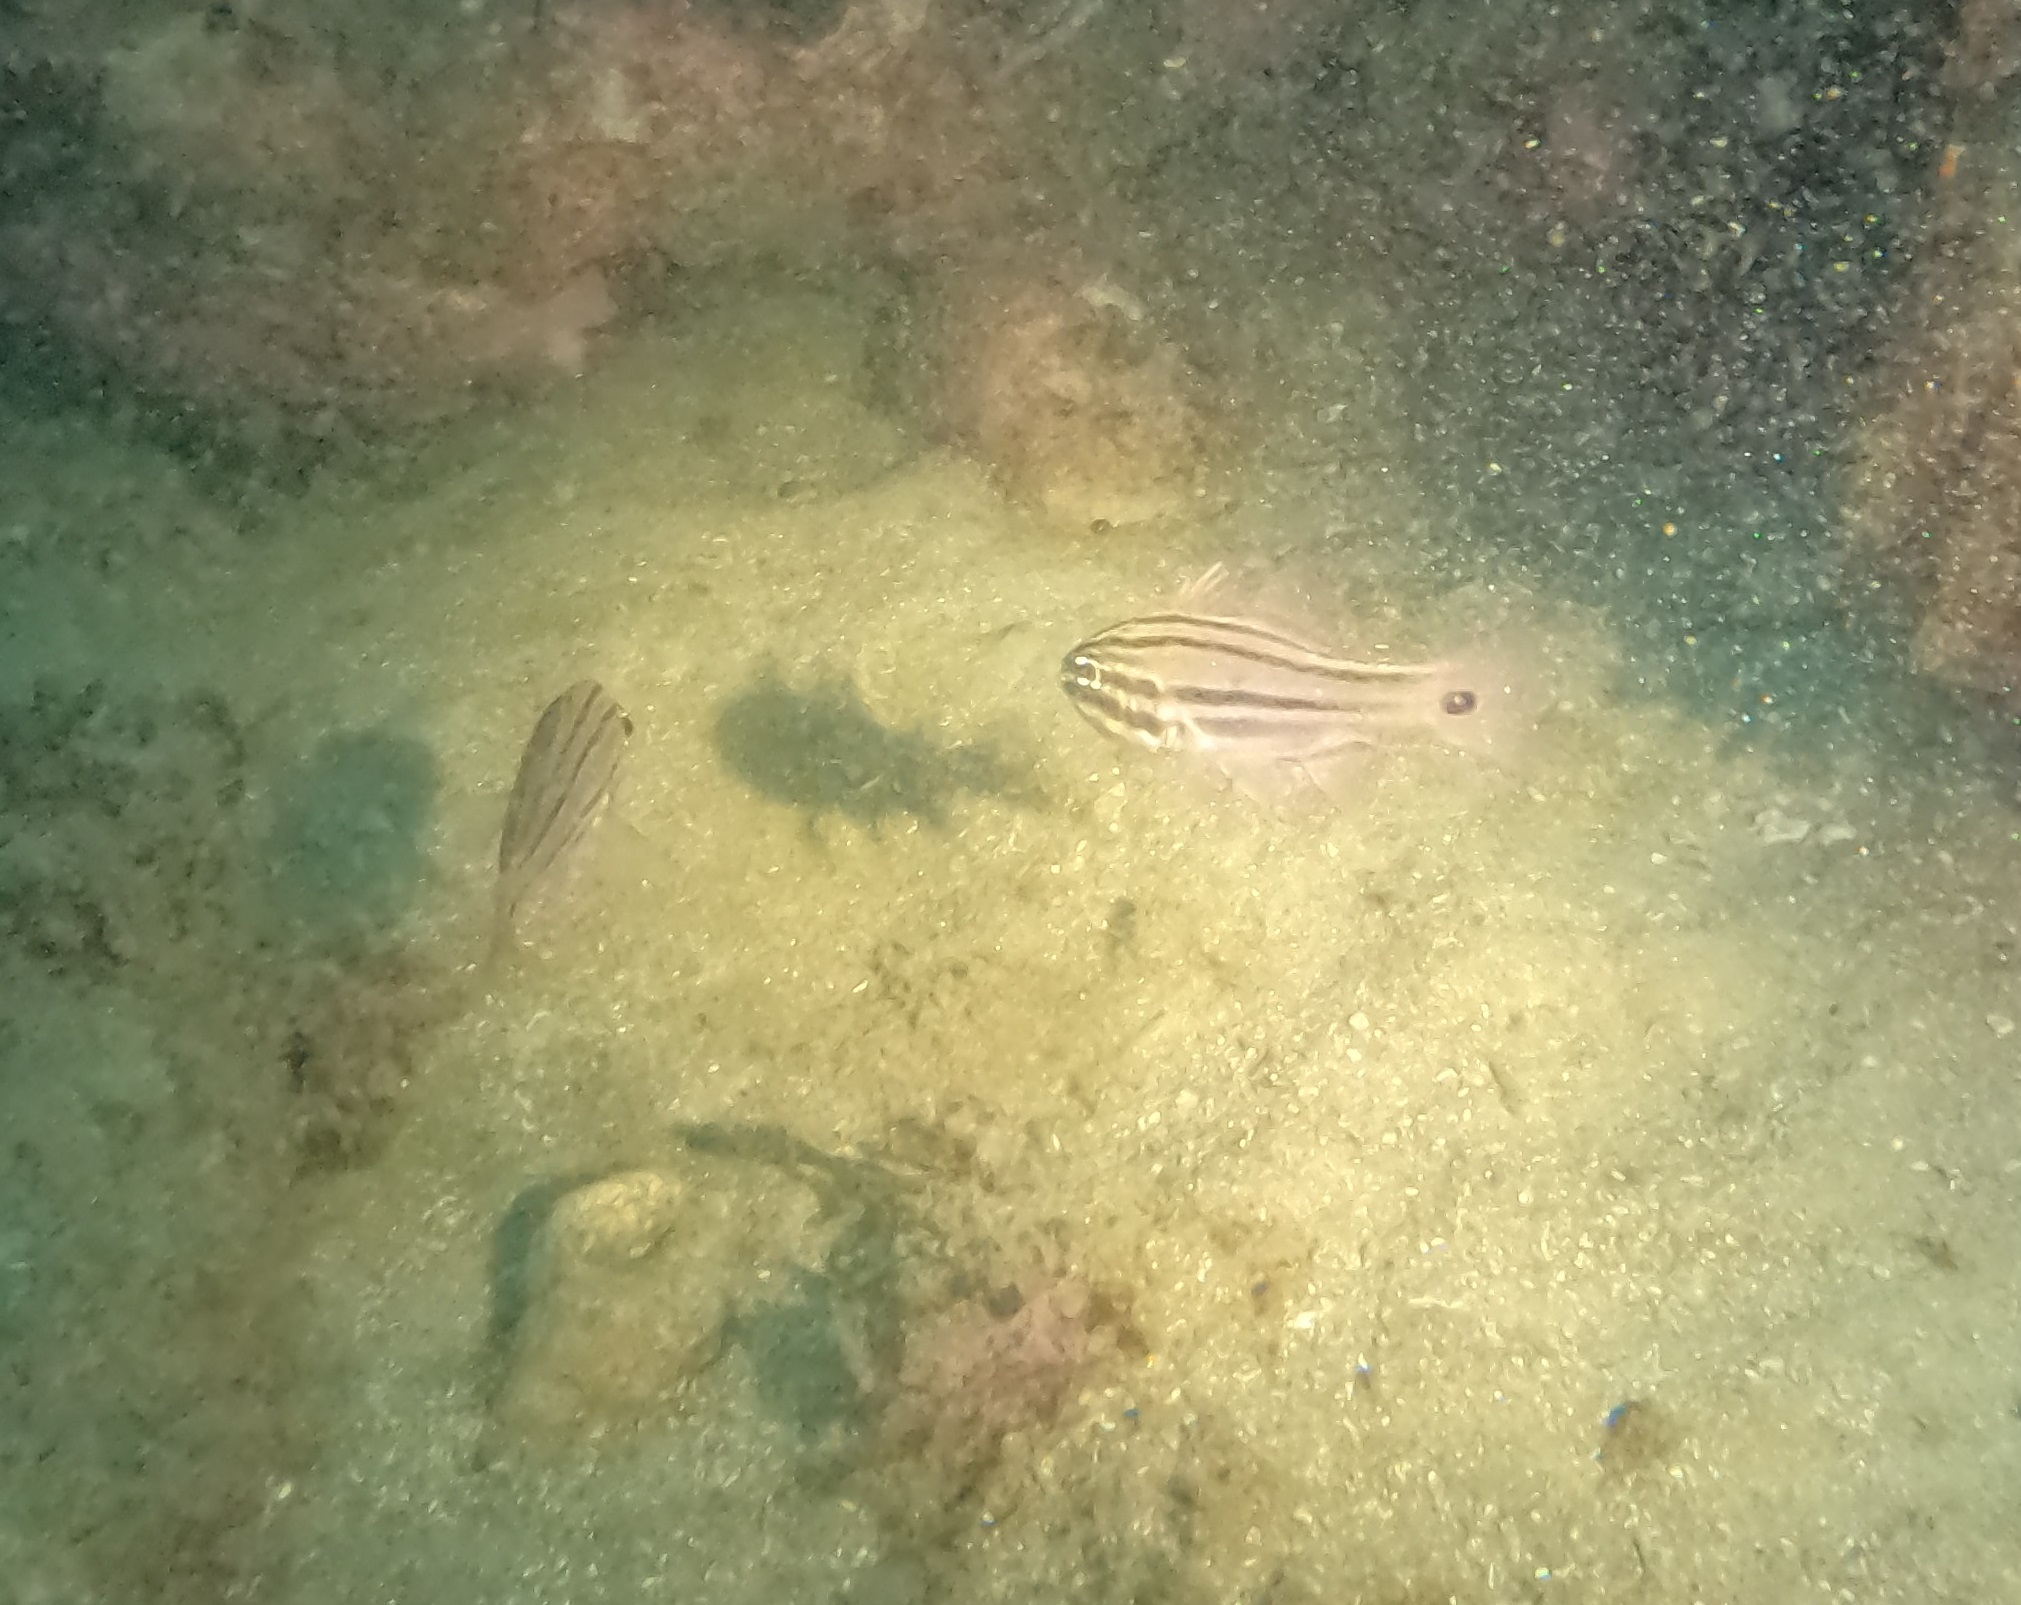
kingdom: Animalia
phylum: Chordata
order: Perciformes
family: Apogonidae
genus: Ostorhinchus
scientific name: Ostorhinchus limenus
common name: Four-banded soldierfish
